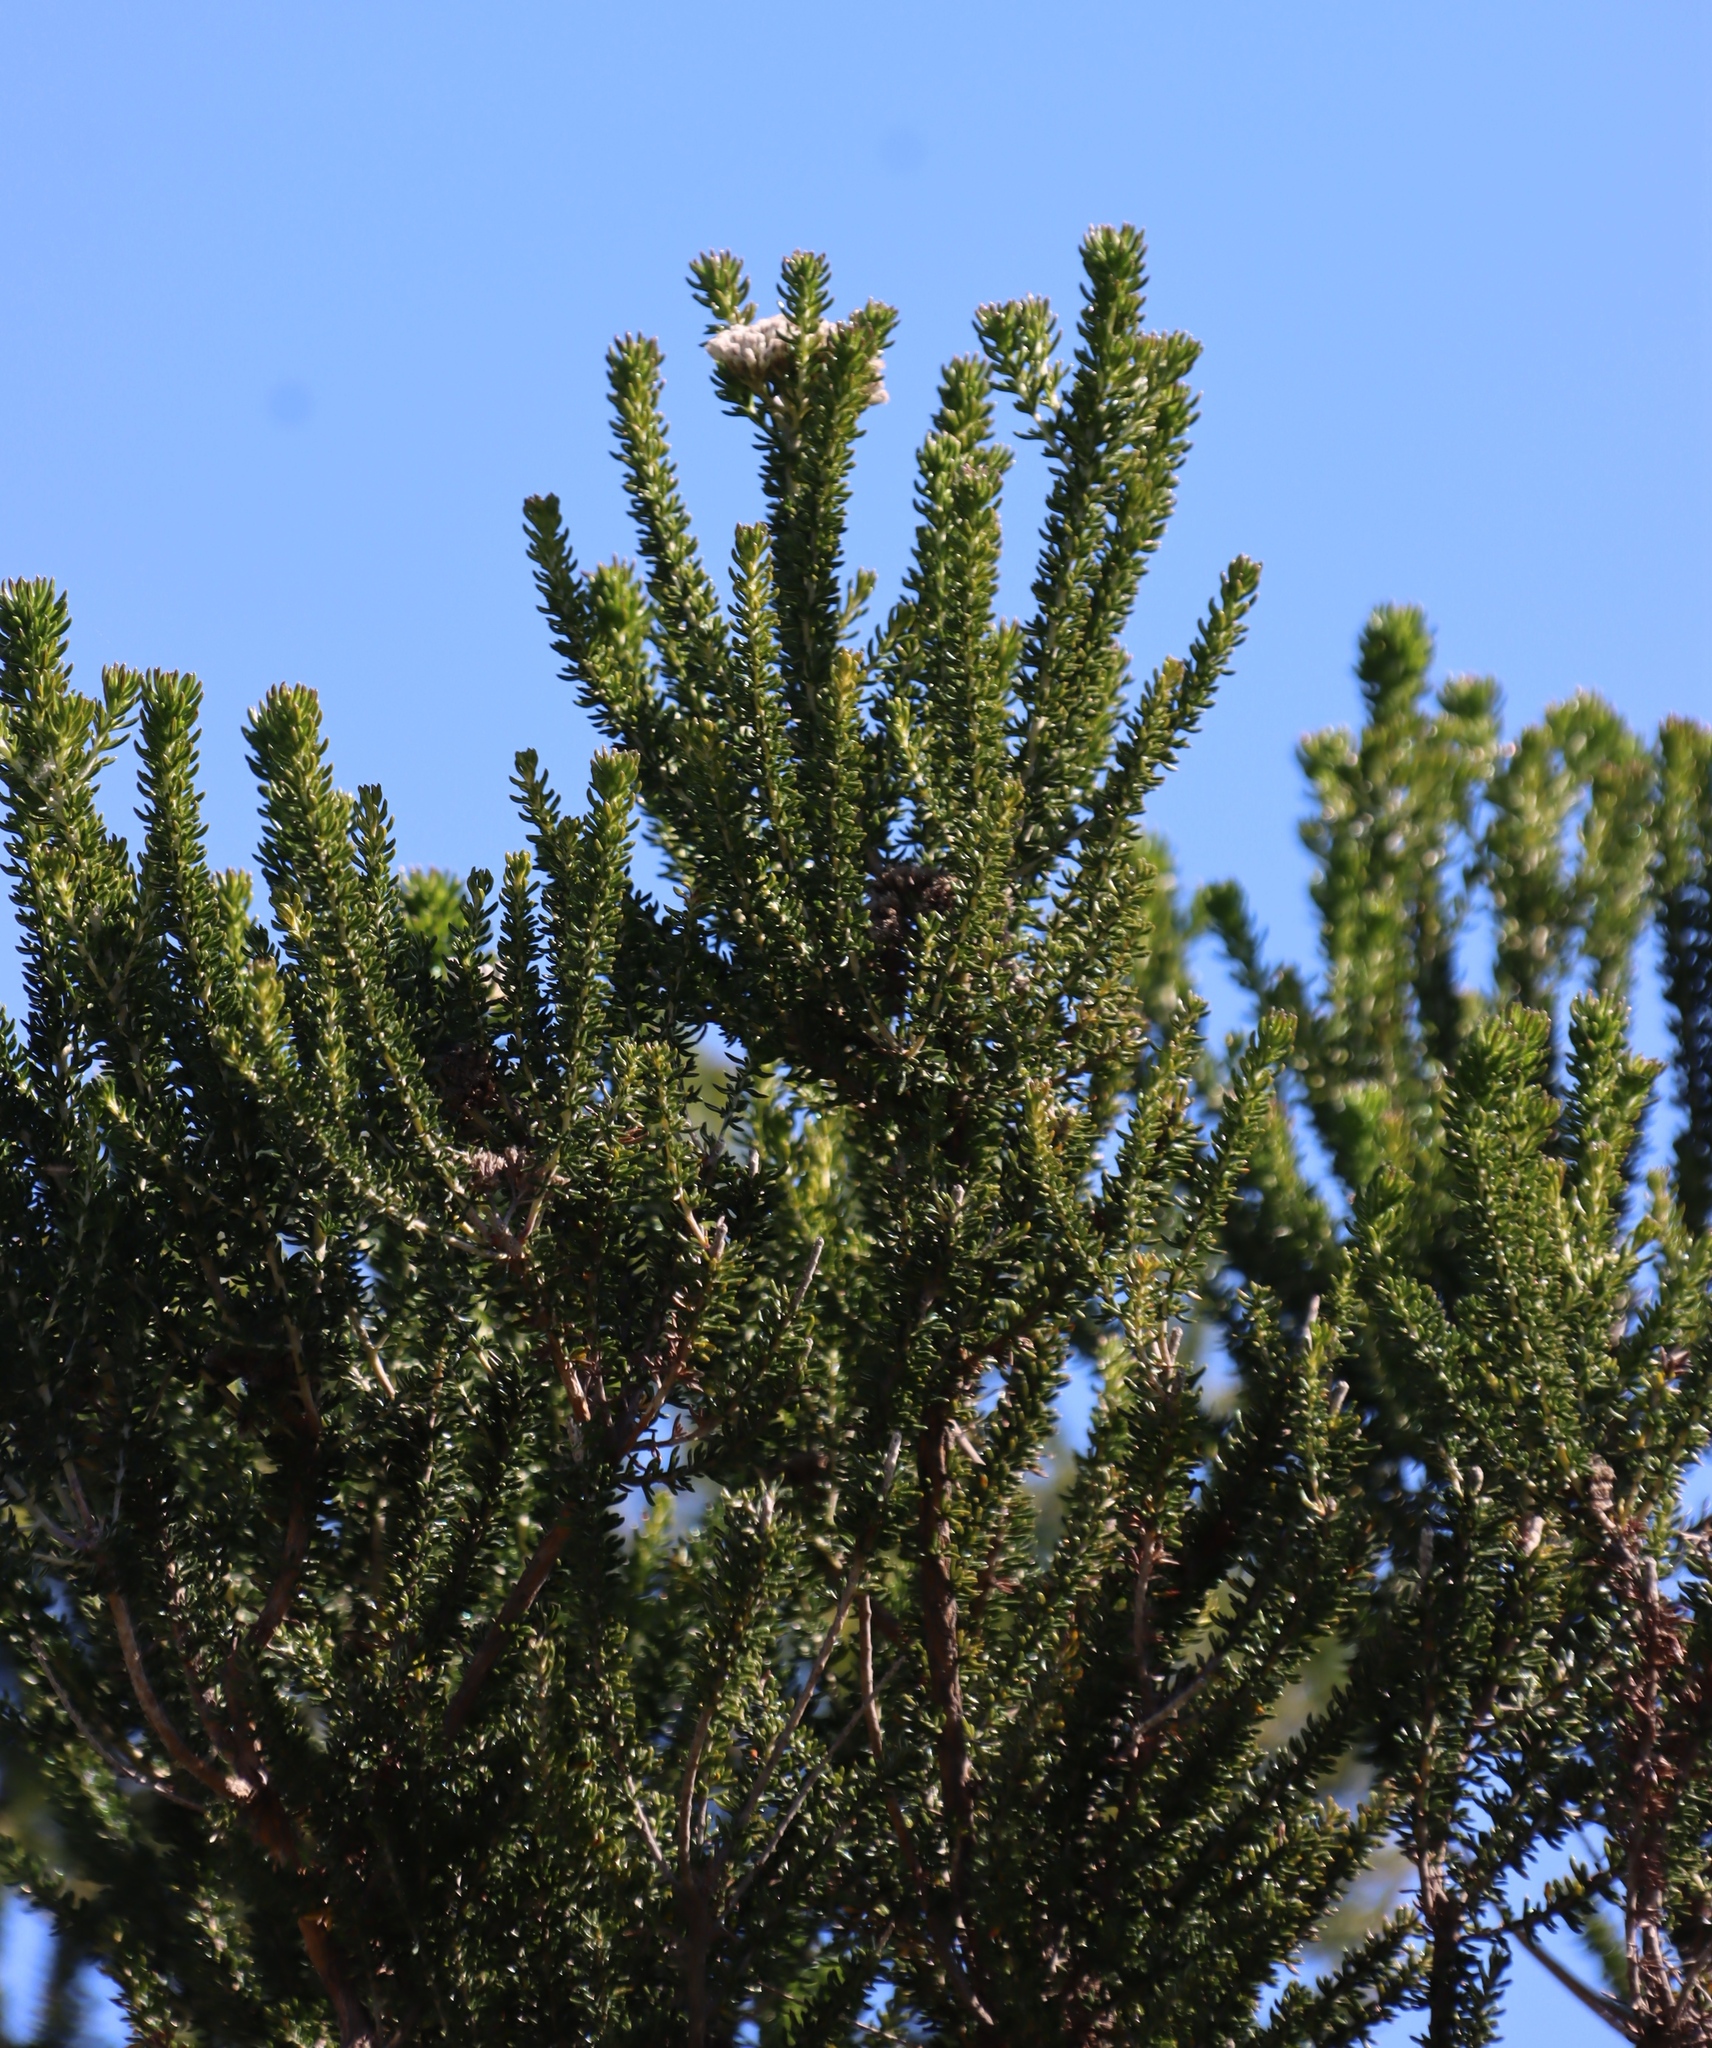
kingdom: Plantae
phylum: Tracheophyta
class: Magnoliopsida
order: Asterales
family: Asteraceae
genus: Metalasia
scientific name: Metalasia densa
